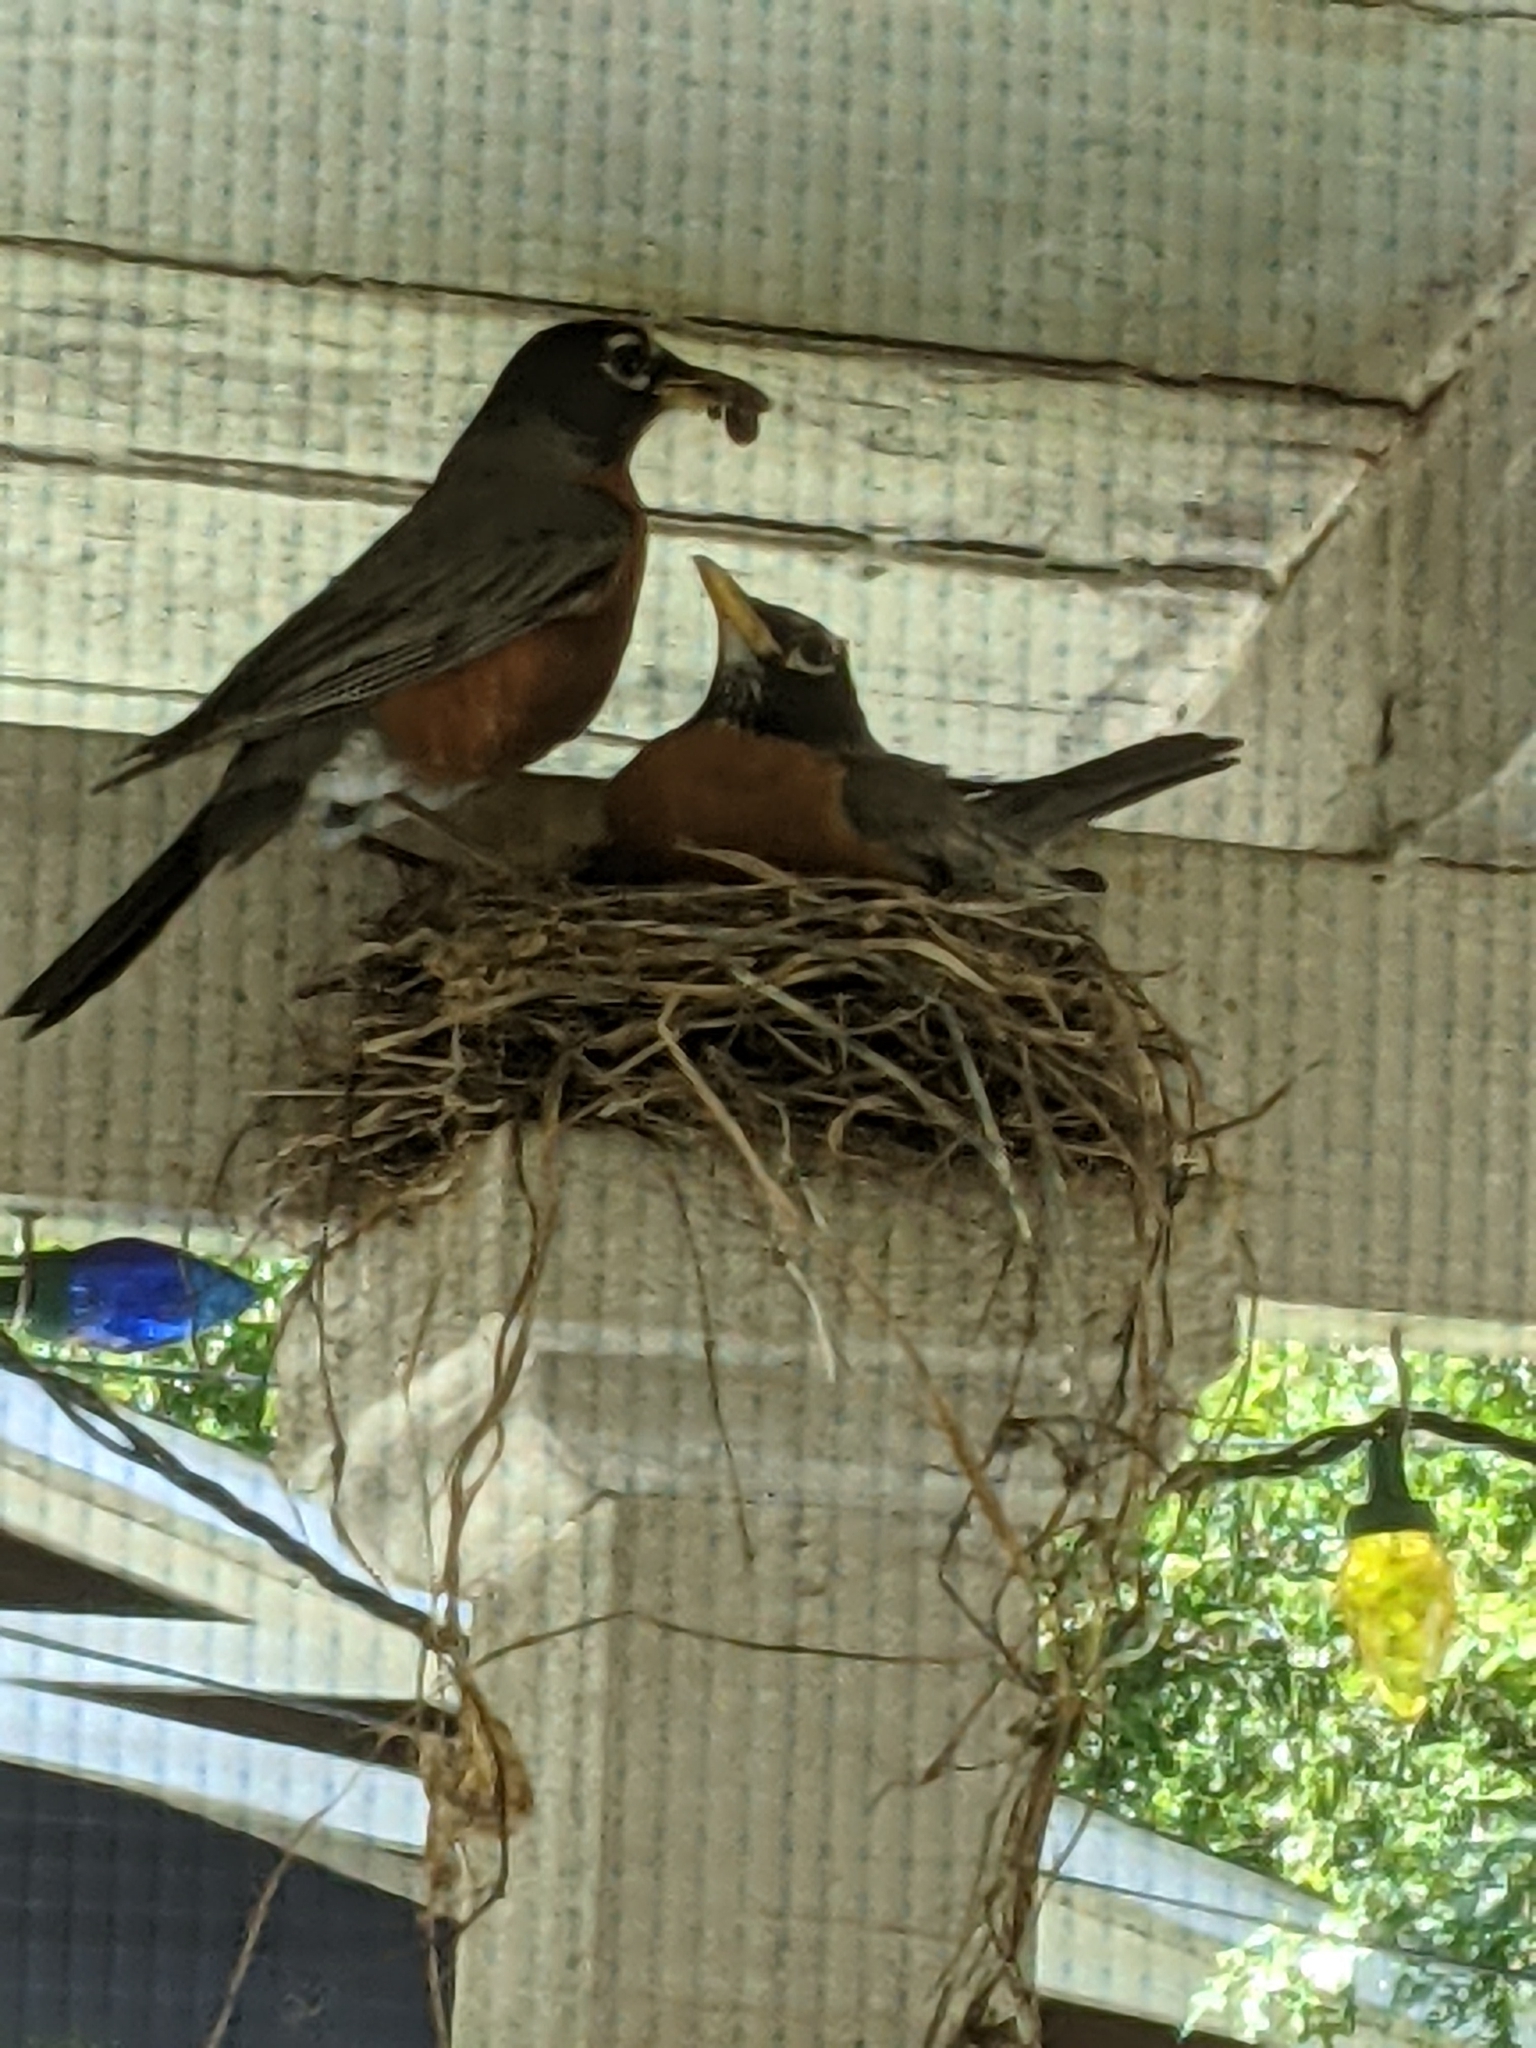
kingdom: Animalia
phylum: Chordata
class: Aves
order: Passeriformes
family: Turdidae
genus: Turdus
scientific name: Turdus migratorius
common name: American robin
